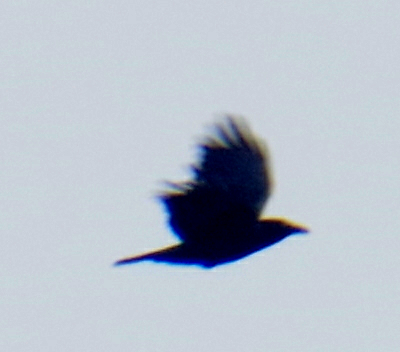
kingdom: Animalia
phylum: Chordata
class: Aves
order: Passeriformes
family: Corvidae
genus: Corvus
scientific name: Corvus brachyrhynchos
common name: American crow
